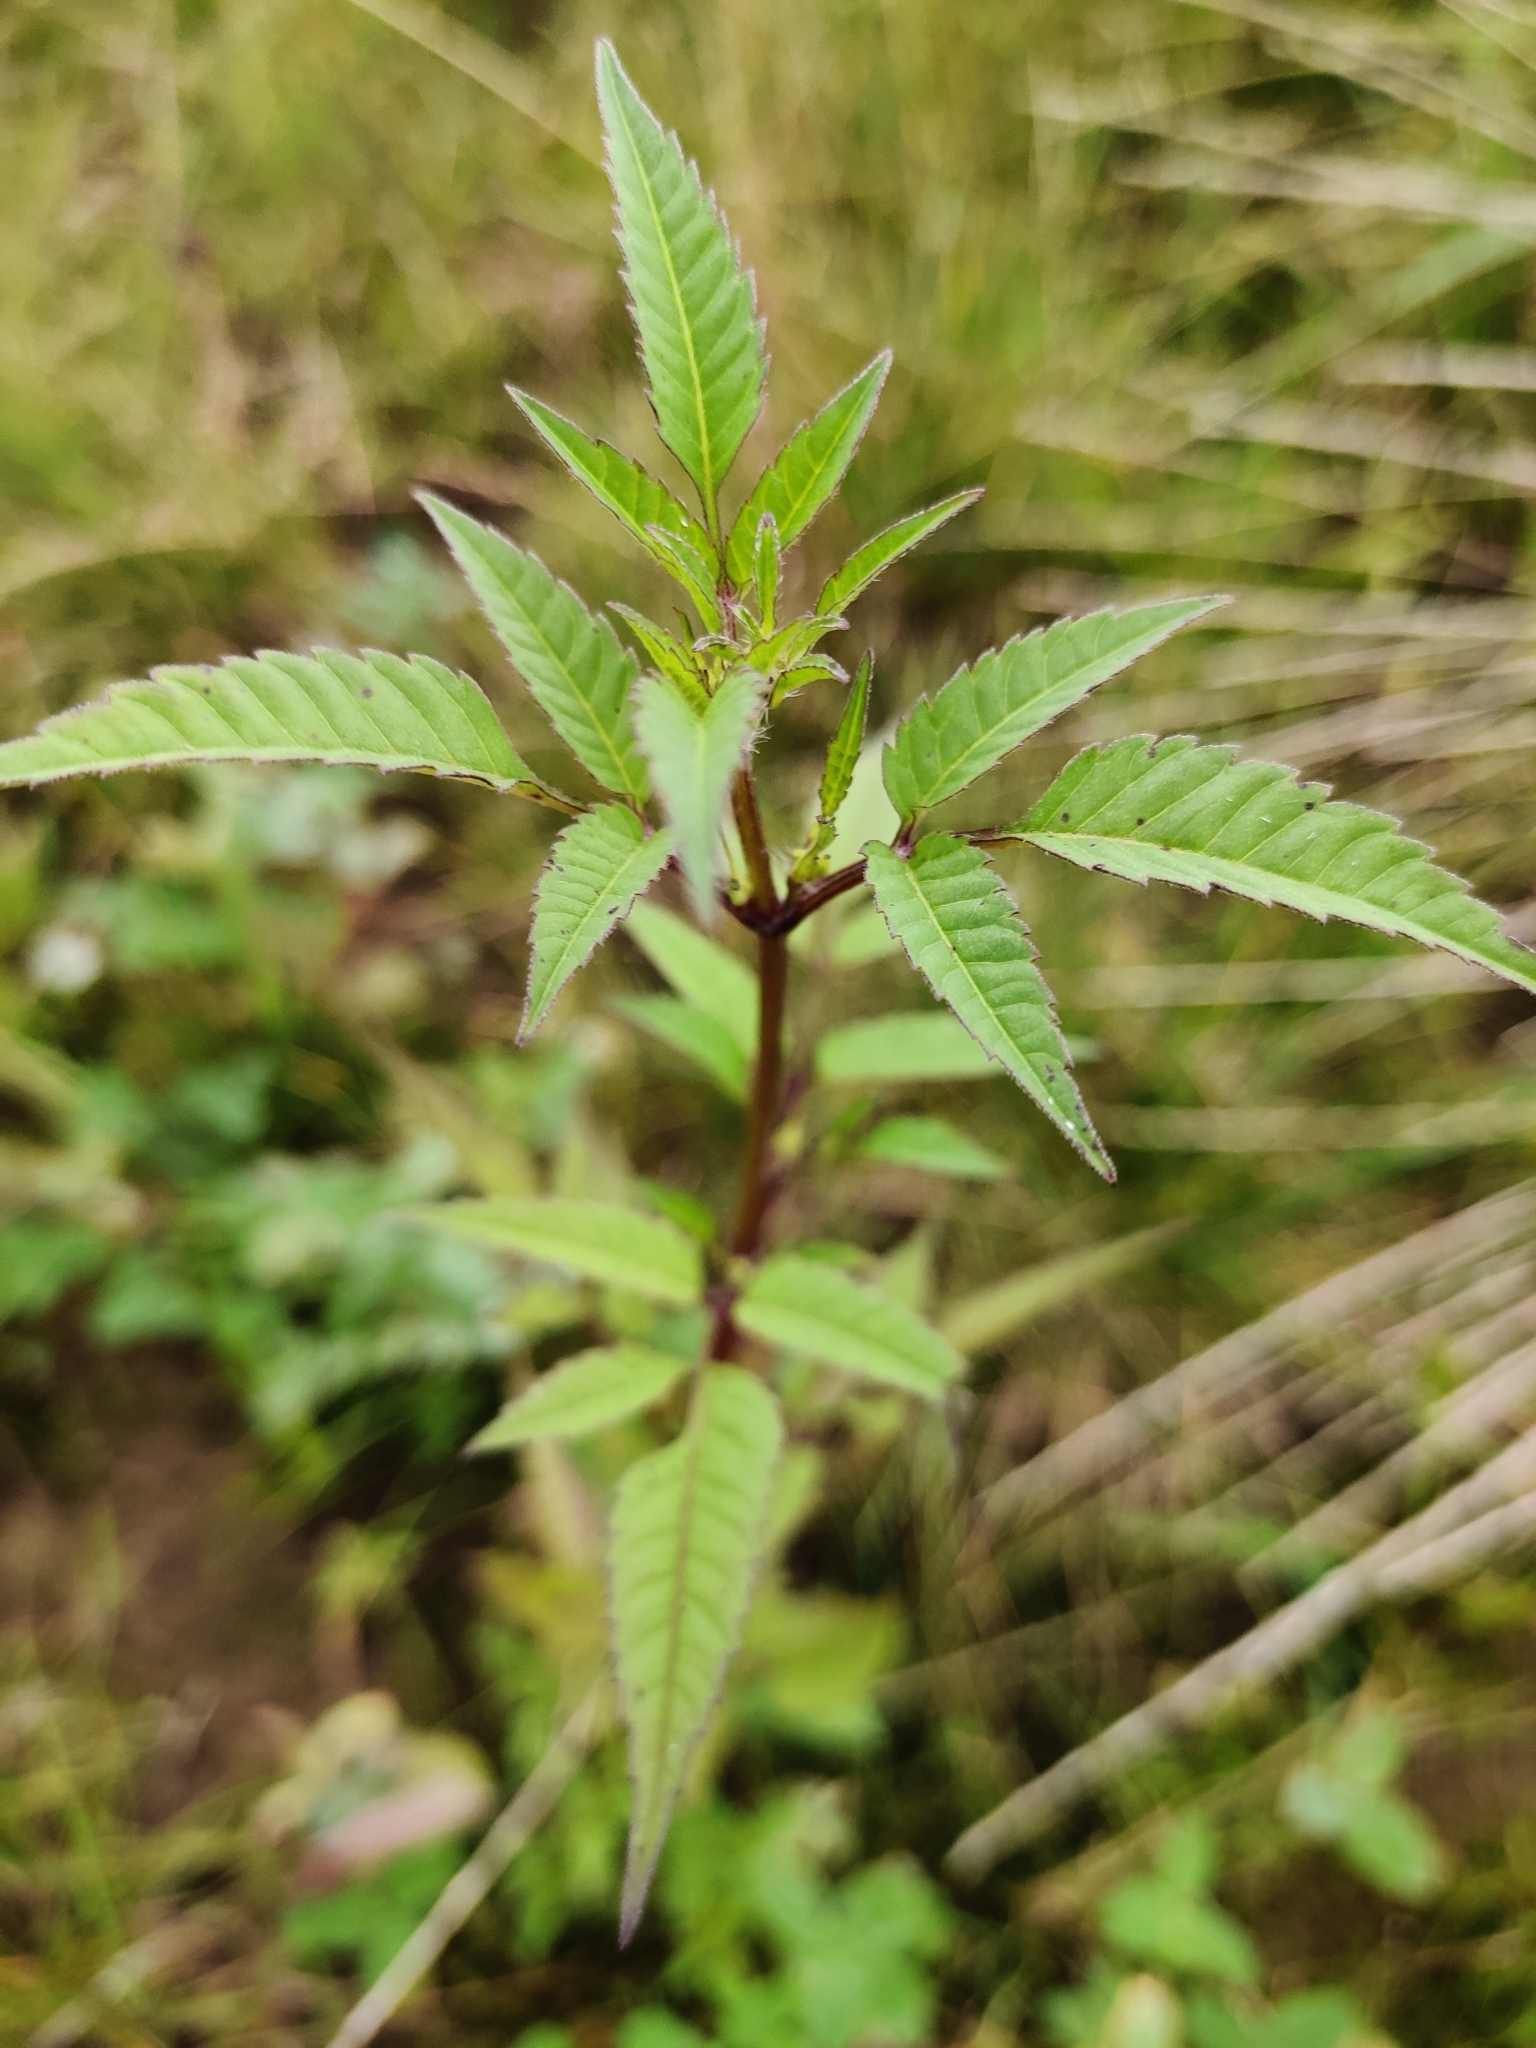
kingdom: Plantae
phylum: Tracheophyta
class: Magnoliopsida
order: Asterales
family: Asteraceae
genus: Bidens
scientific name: Bidens frondosa
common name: Beggarticks
